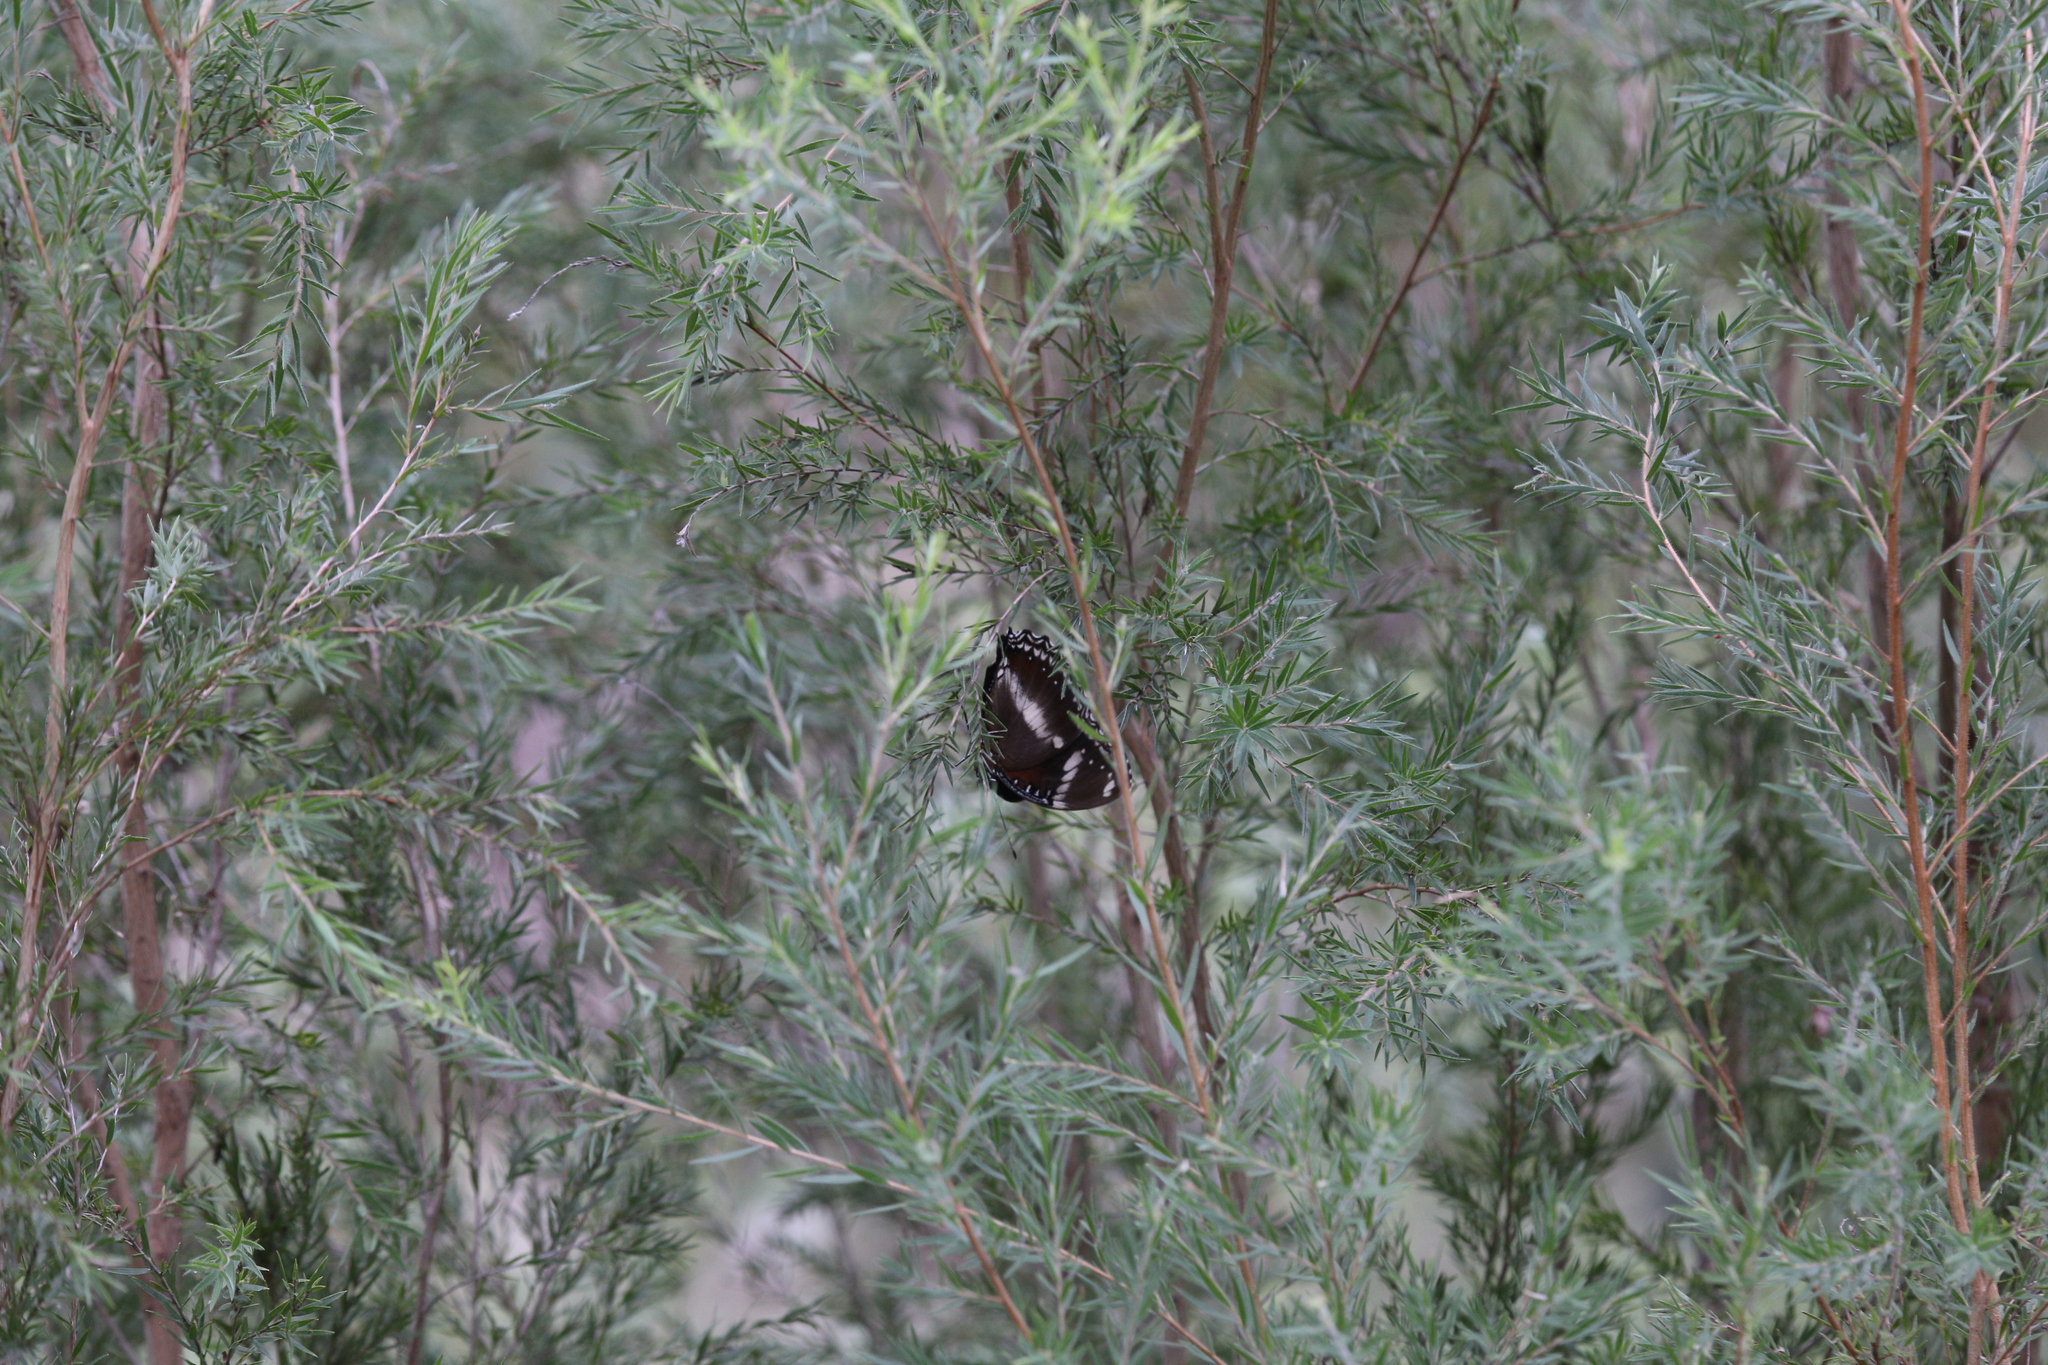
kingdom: Animalia
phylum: Arthropoda
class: Insecta
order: Lepidoptera
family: Nymphalidae
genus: Hypolimnas
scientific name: Hypolimnas bolina
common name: Great eggfly
